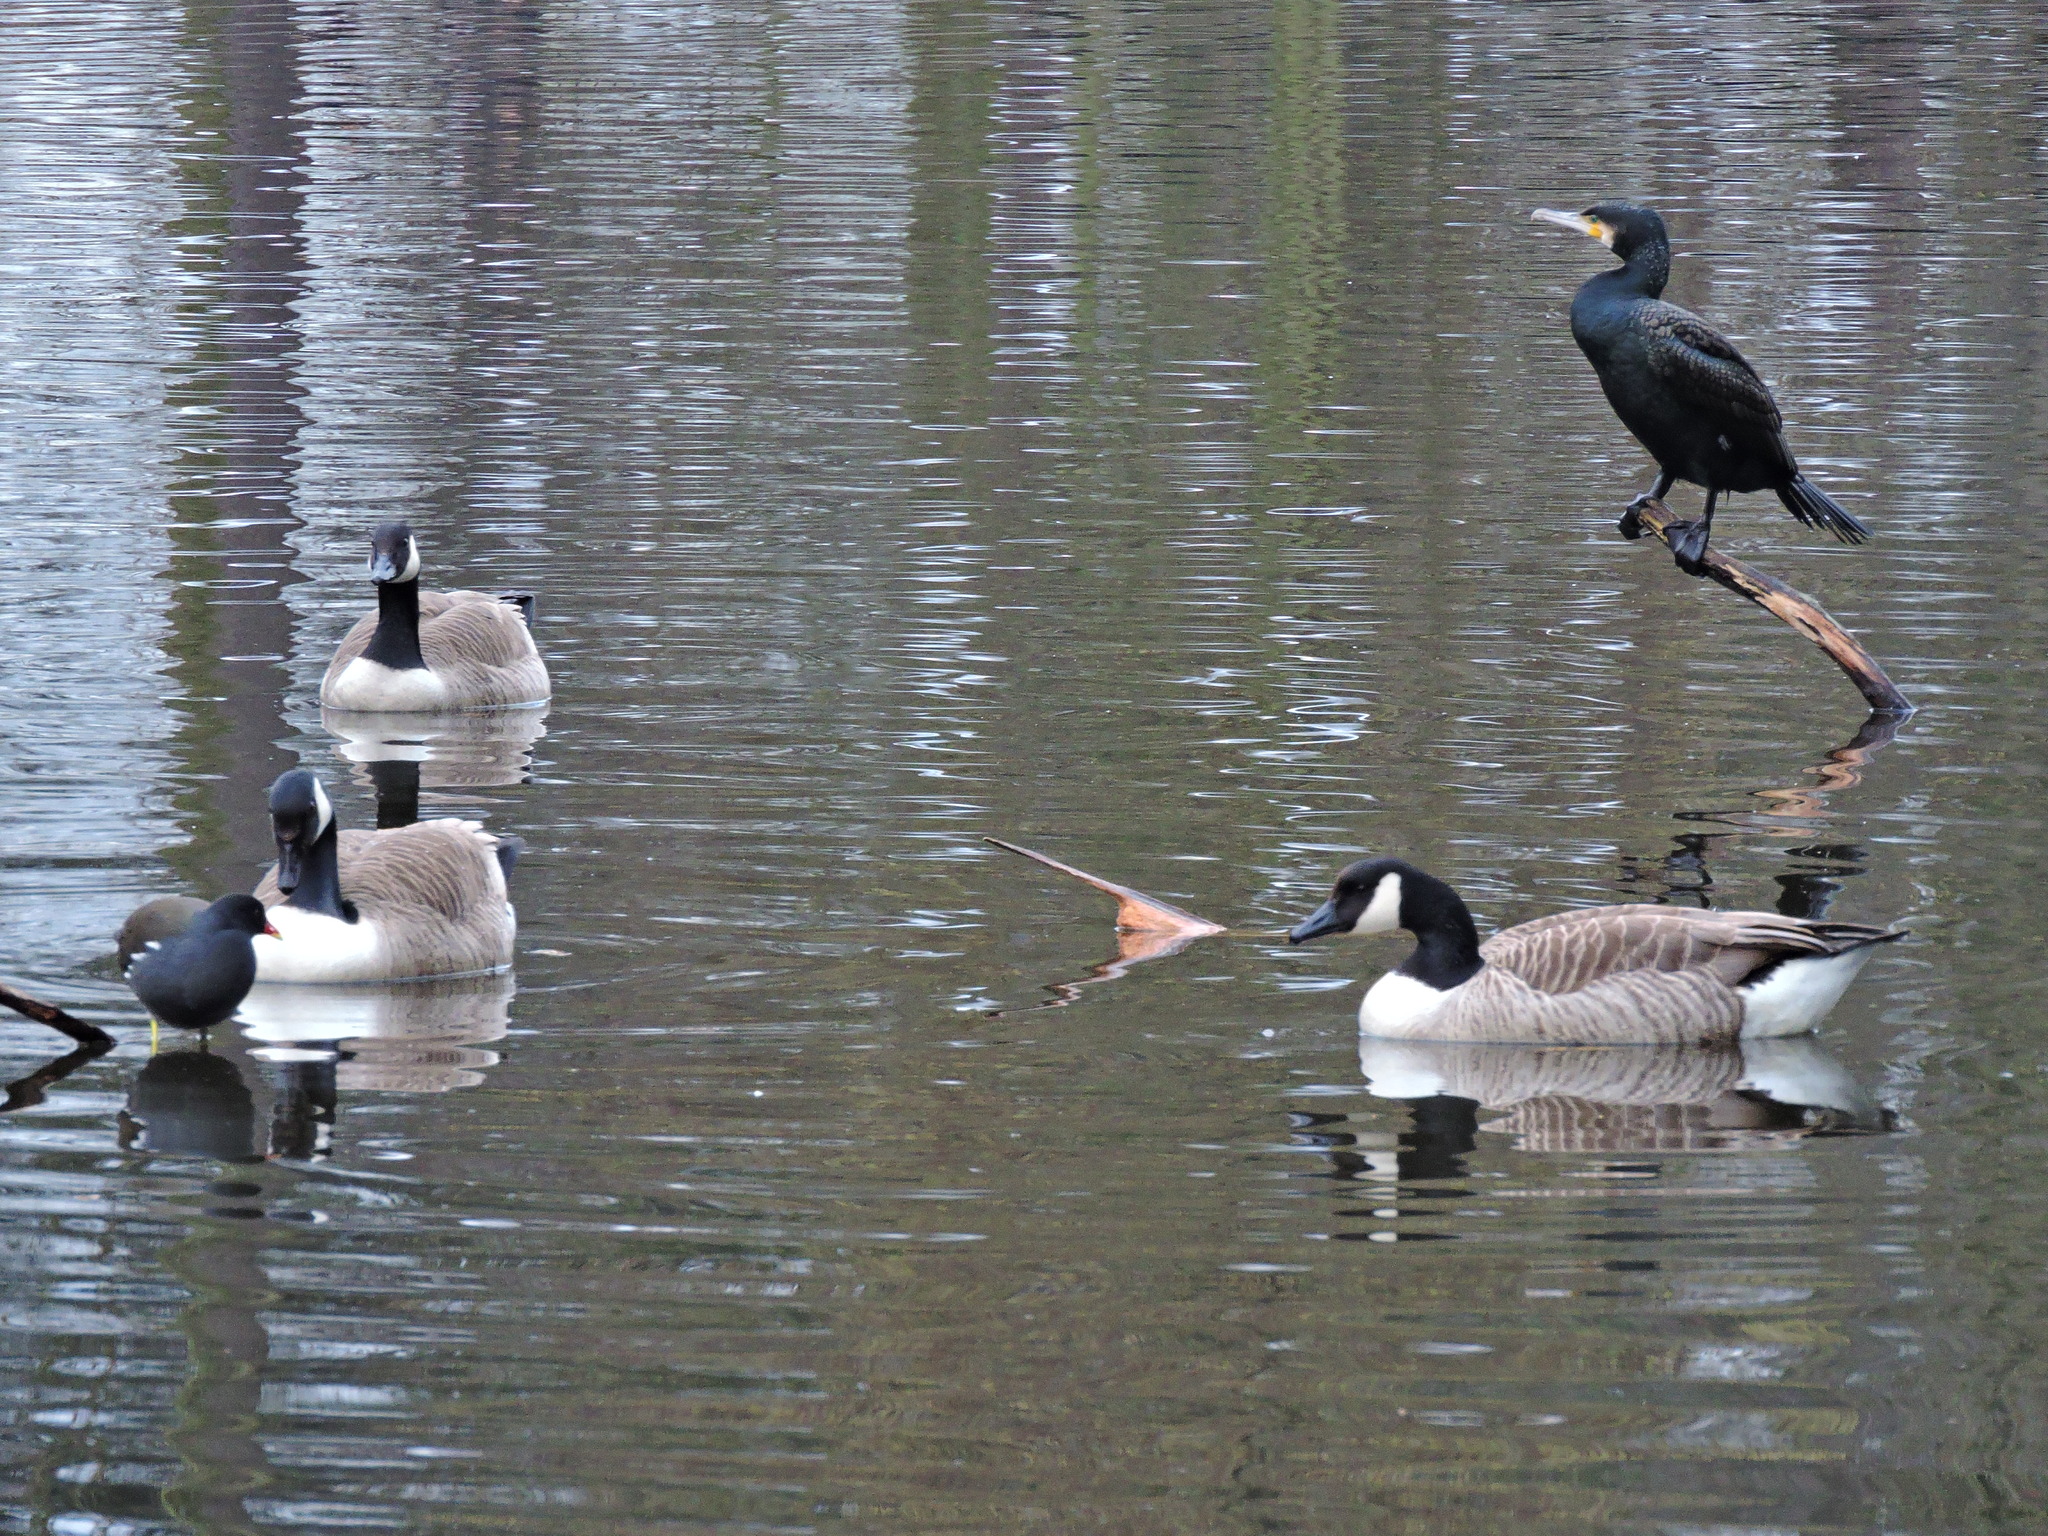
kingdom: Animalia
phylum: Chordata
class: Aves
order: Anseriformes
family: Anatidae
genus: Branta
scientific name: Branta canadensis
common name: Canada goose
